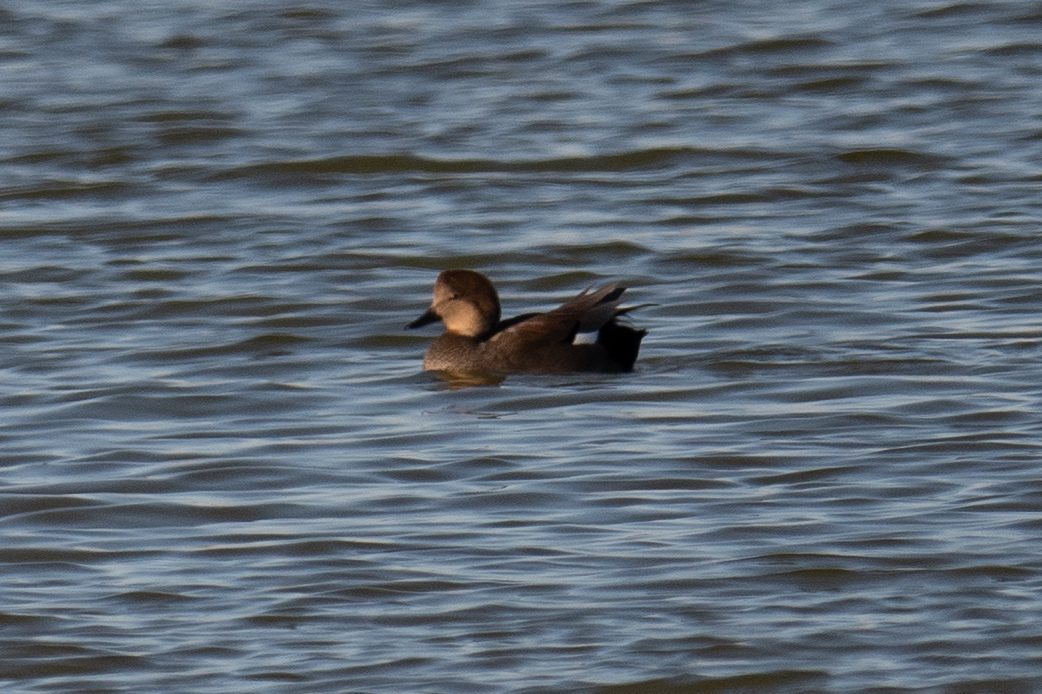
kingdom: Animalia
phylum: Chordata
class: Aves
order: Anseriformes
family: Anatidae
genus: Mareca
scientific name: Mareca strepera
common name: Gadwall
